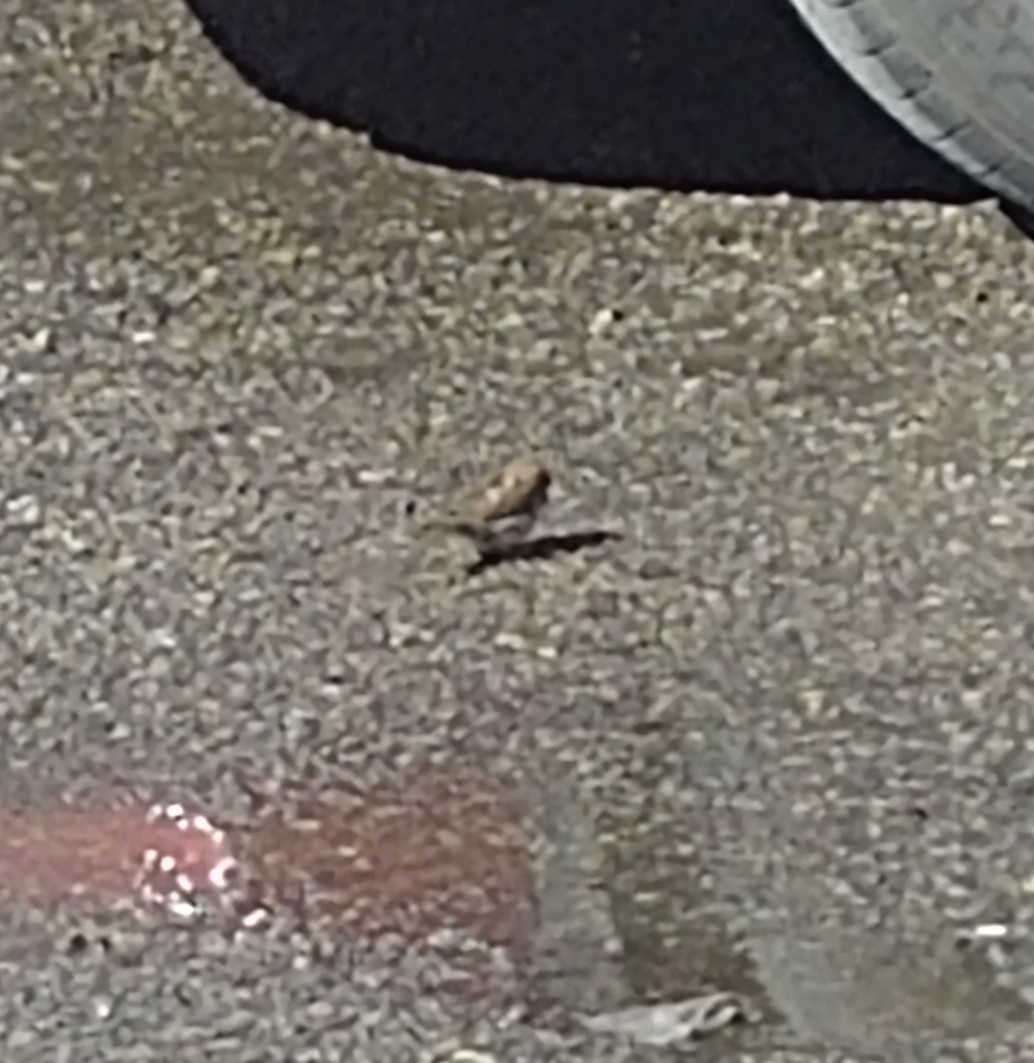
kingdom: Animalia
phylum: Chordata
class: Aves
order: Passeriformes
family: Passeridae
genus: Passer
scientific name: Passer domesticus
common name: House sparrow
